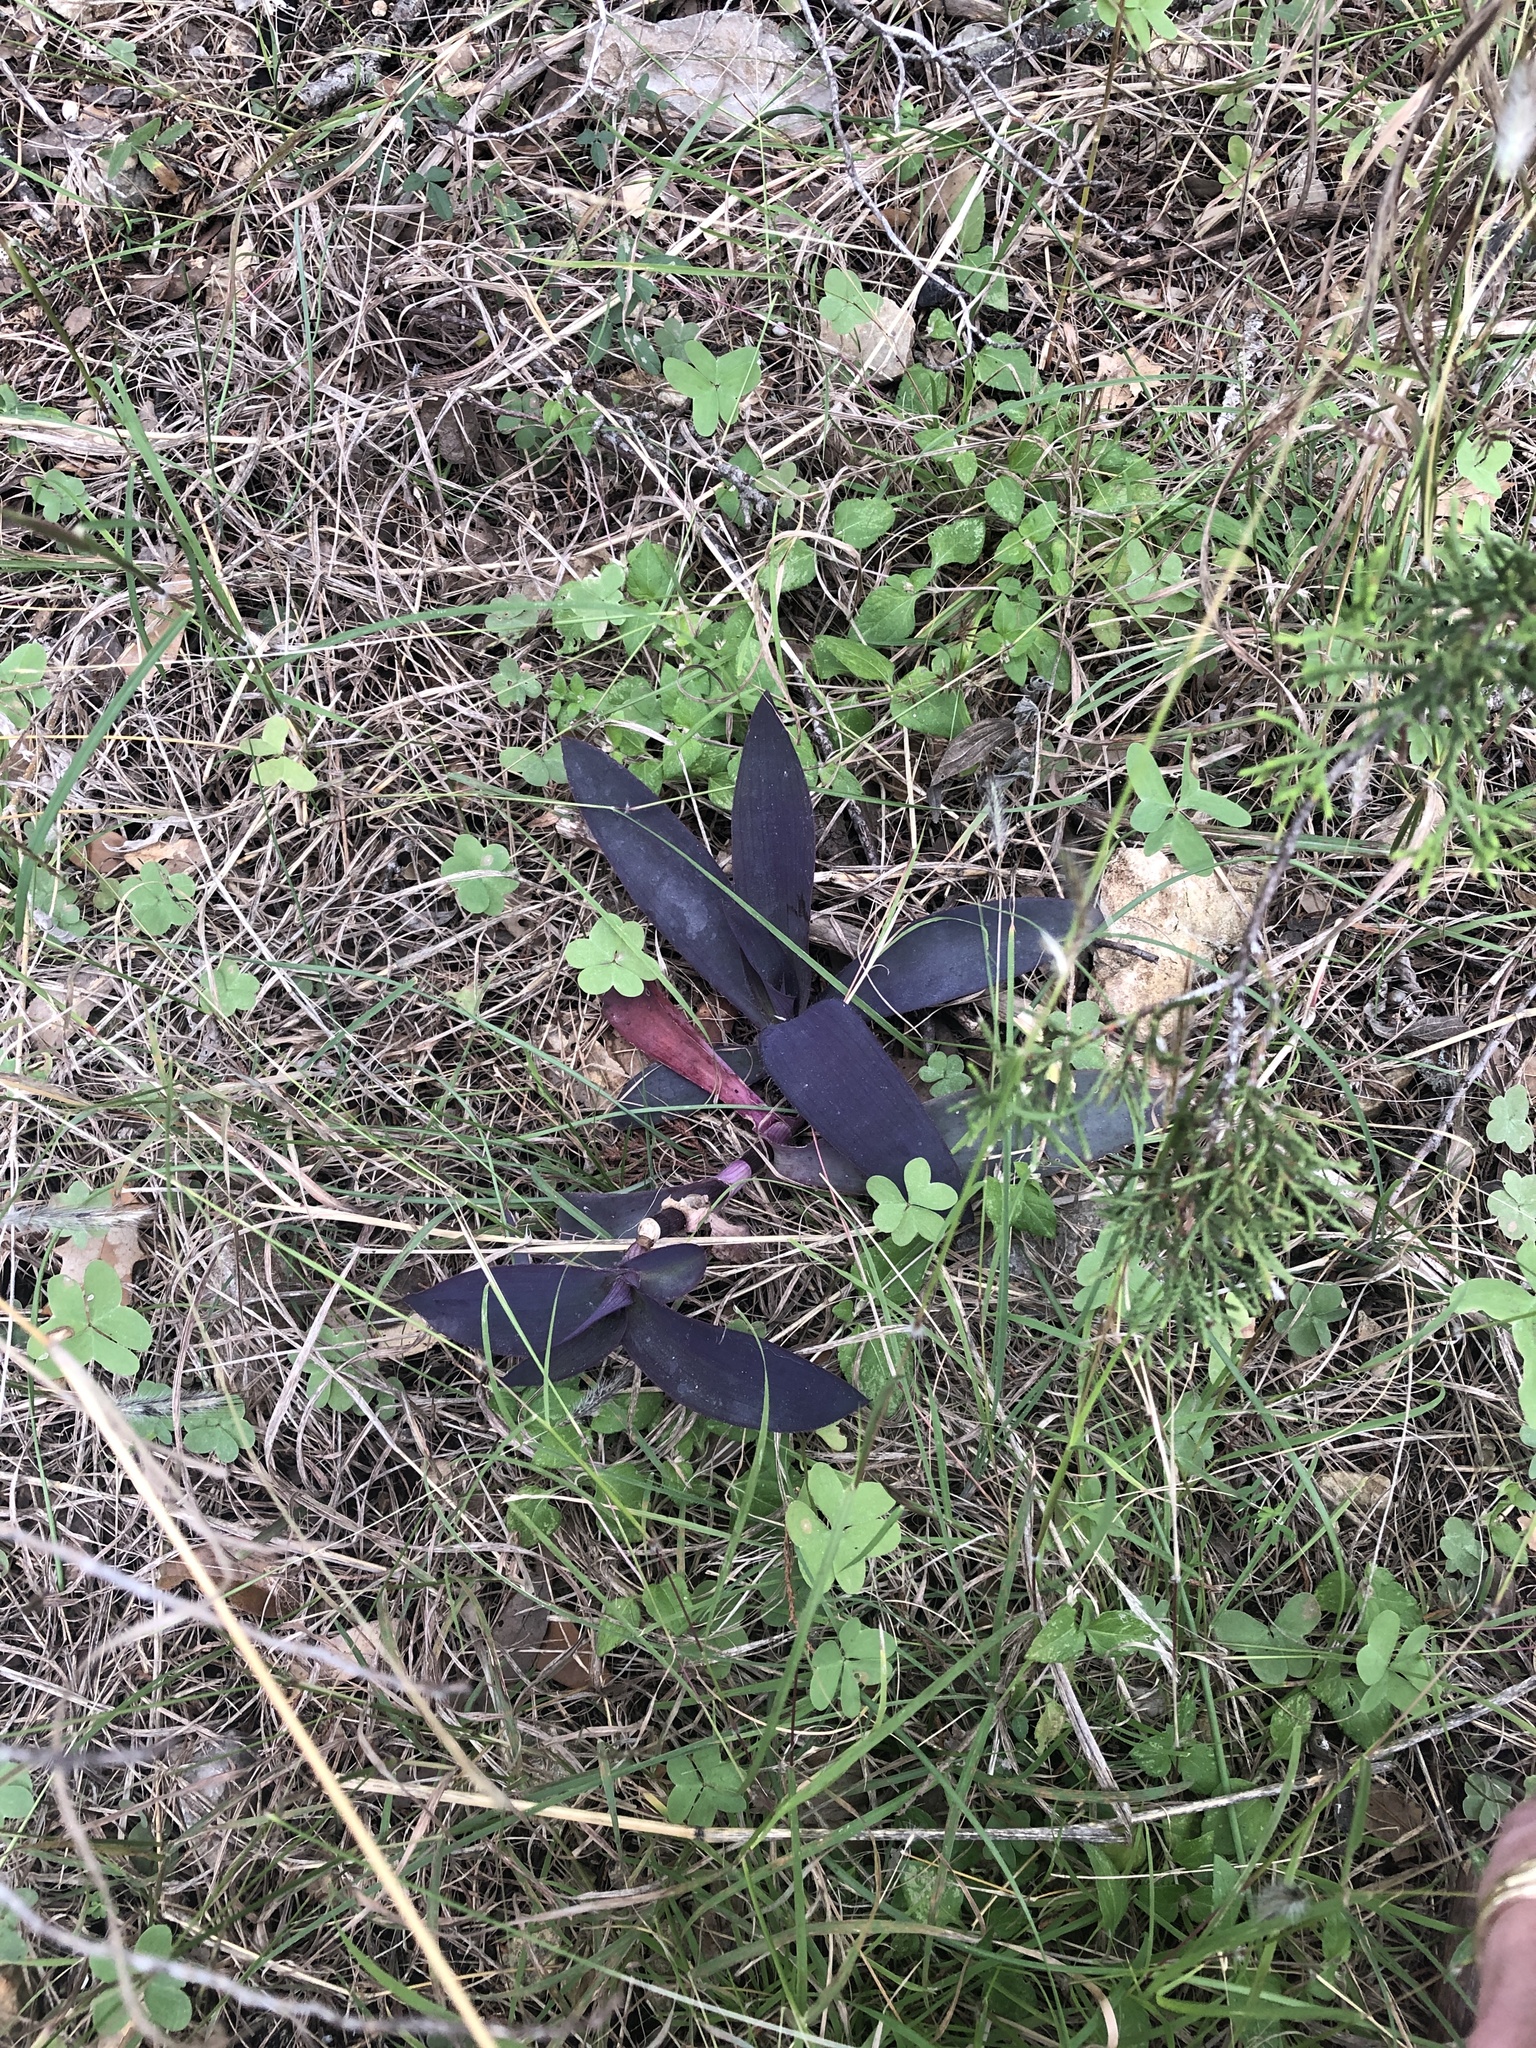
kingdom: Plantae
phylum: Tracheophyta
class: Liliopsida
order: Commelinales
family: Commelinaceae
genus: Tradescantia
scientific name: Tradescantia pallida
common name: Purpleheart
